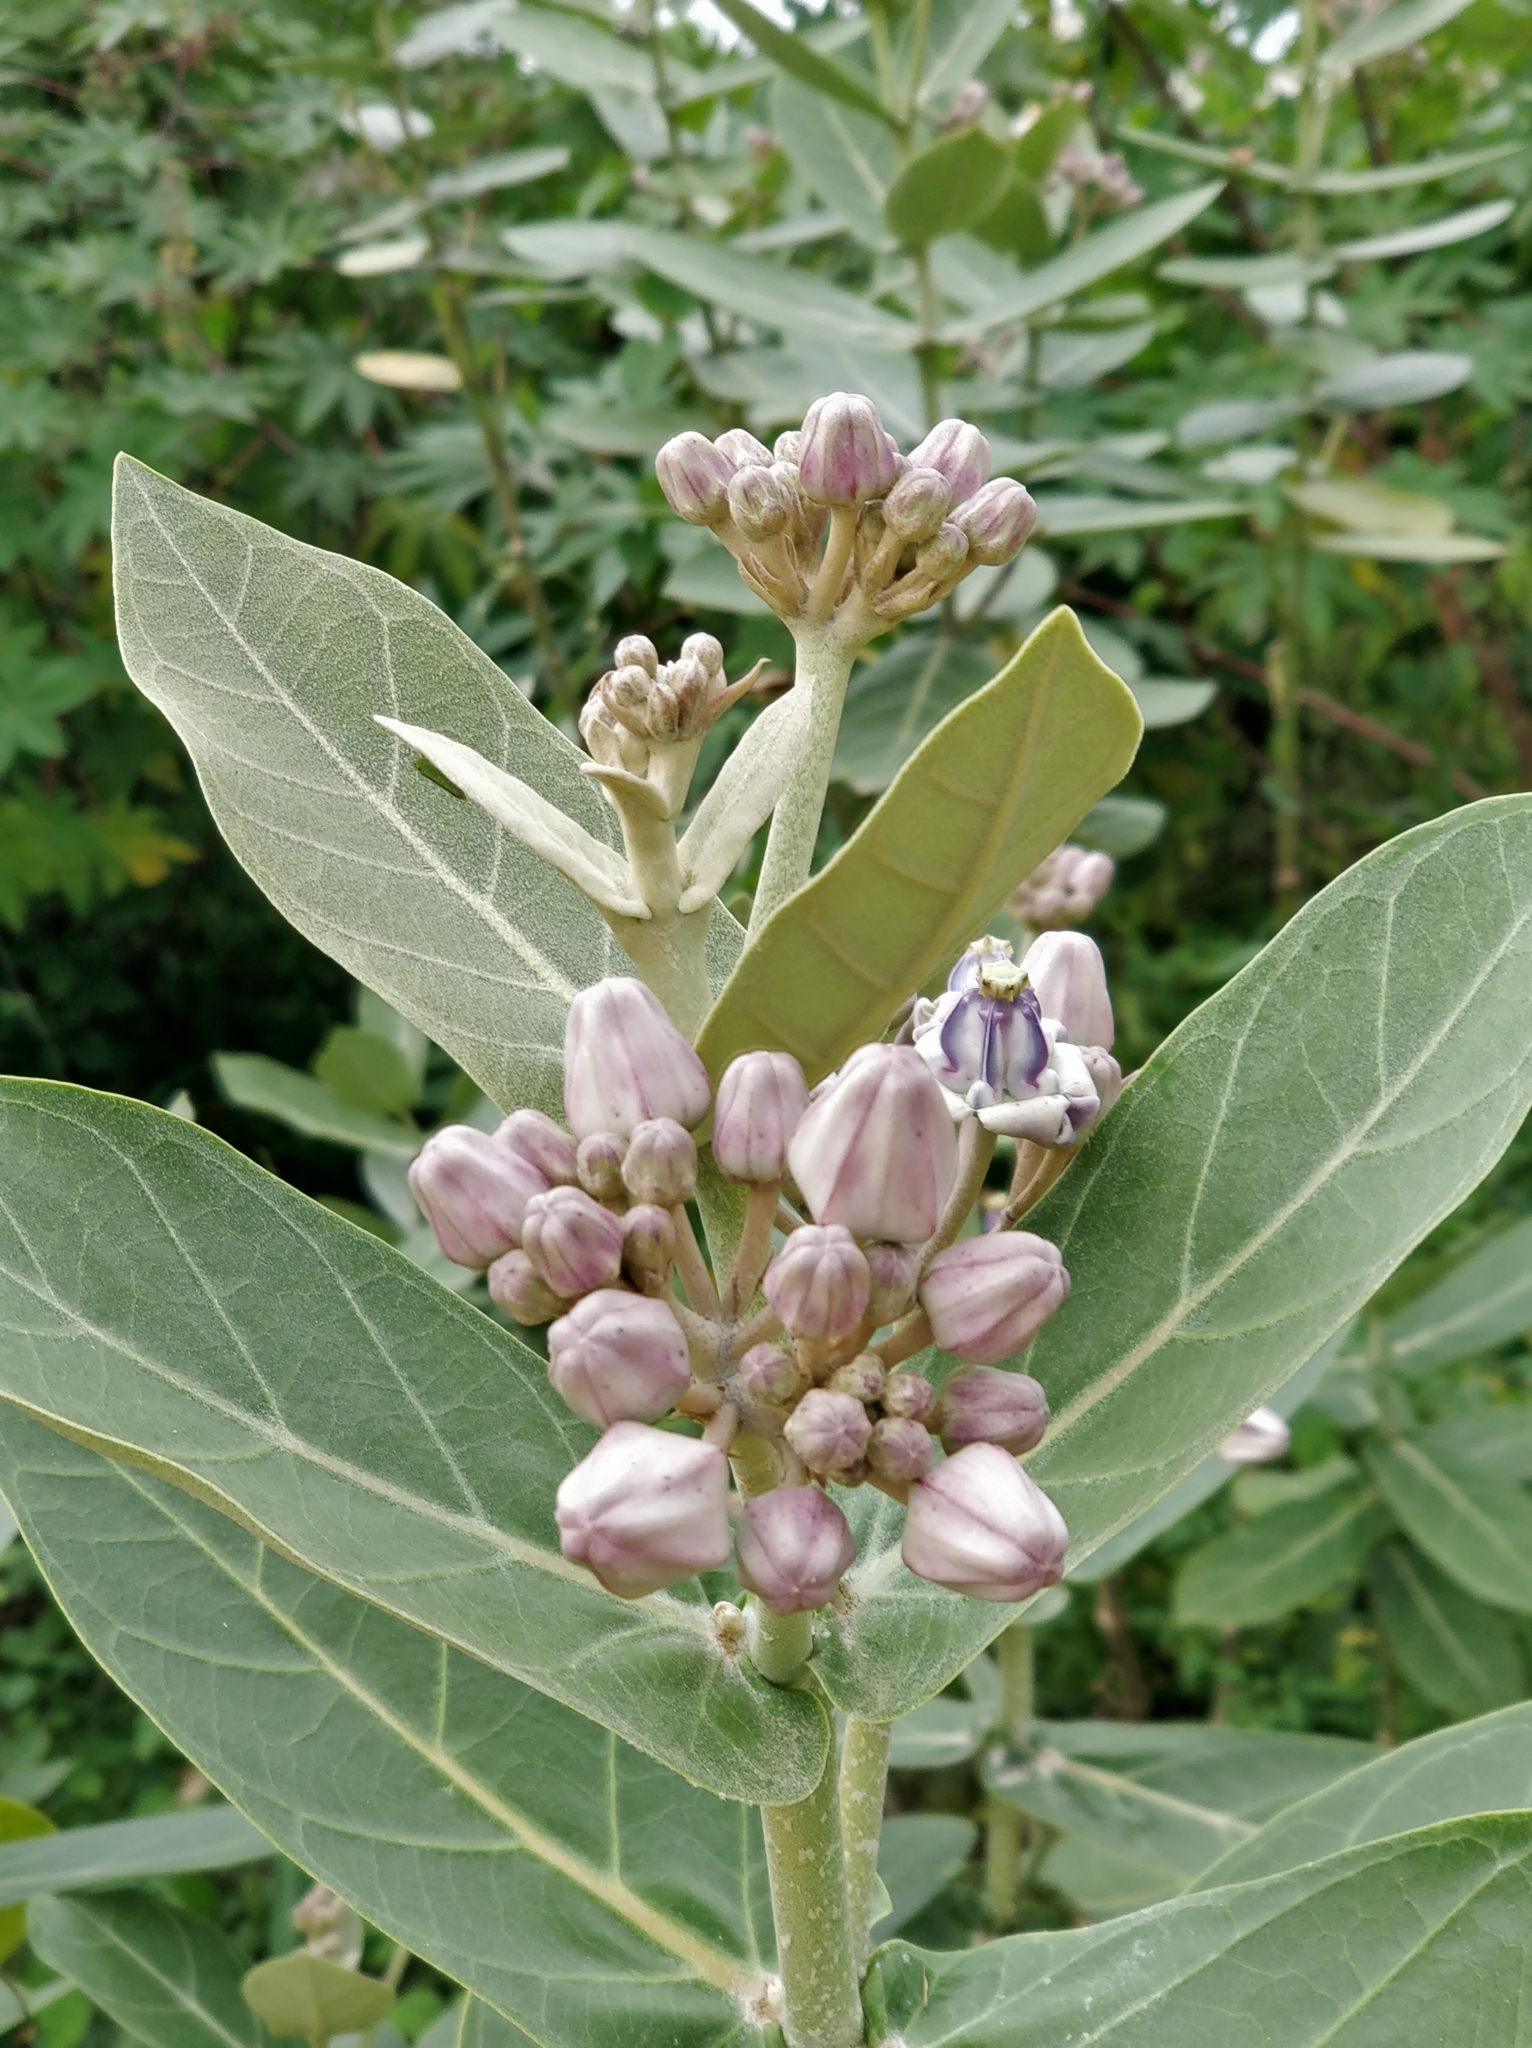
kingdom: Plantae
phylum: Tracheophyta
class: Magnoliopsida
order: Gentianales
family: Apocynaceae
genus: Calotropis
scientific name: Calotropis gigantea
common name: Crown flower
